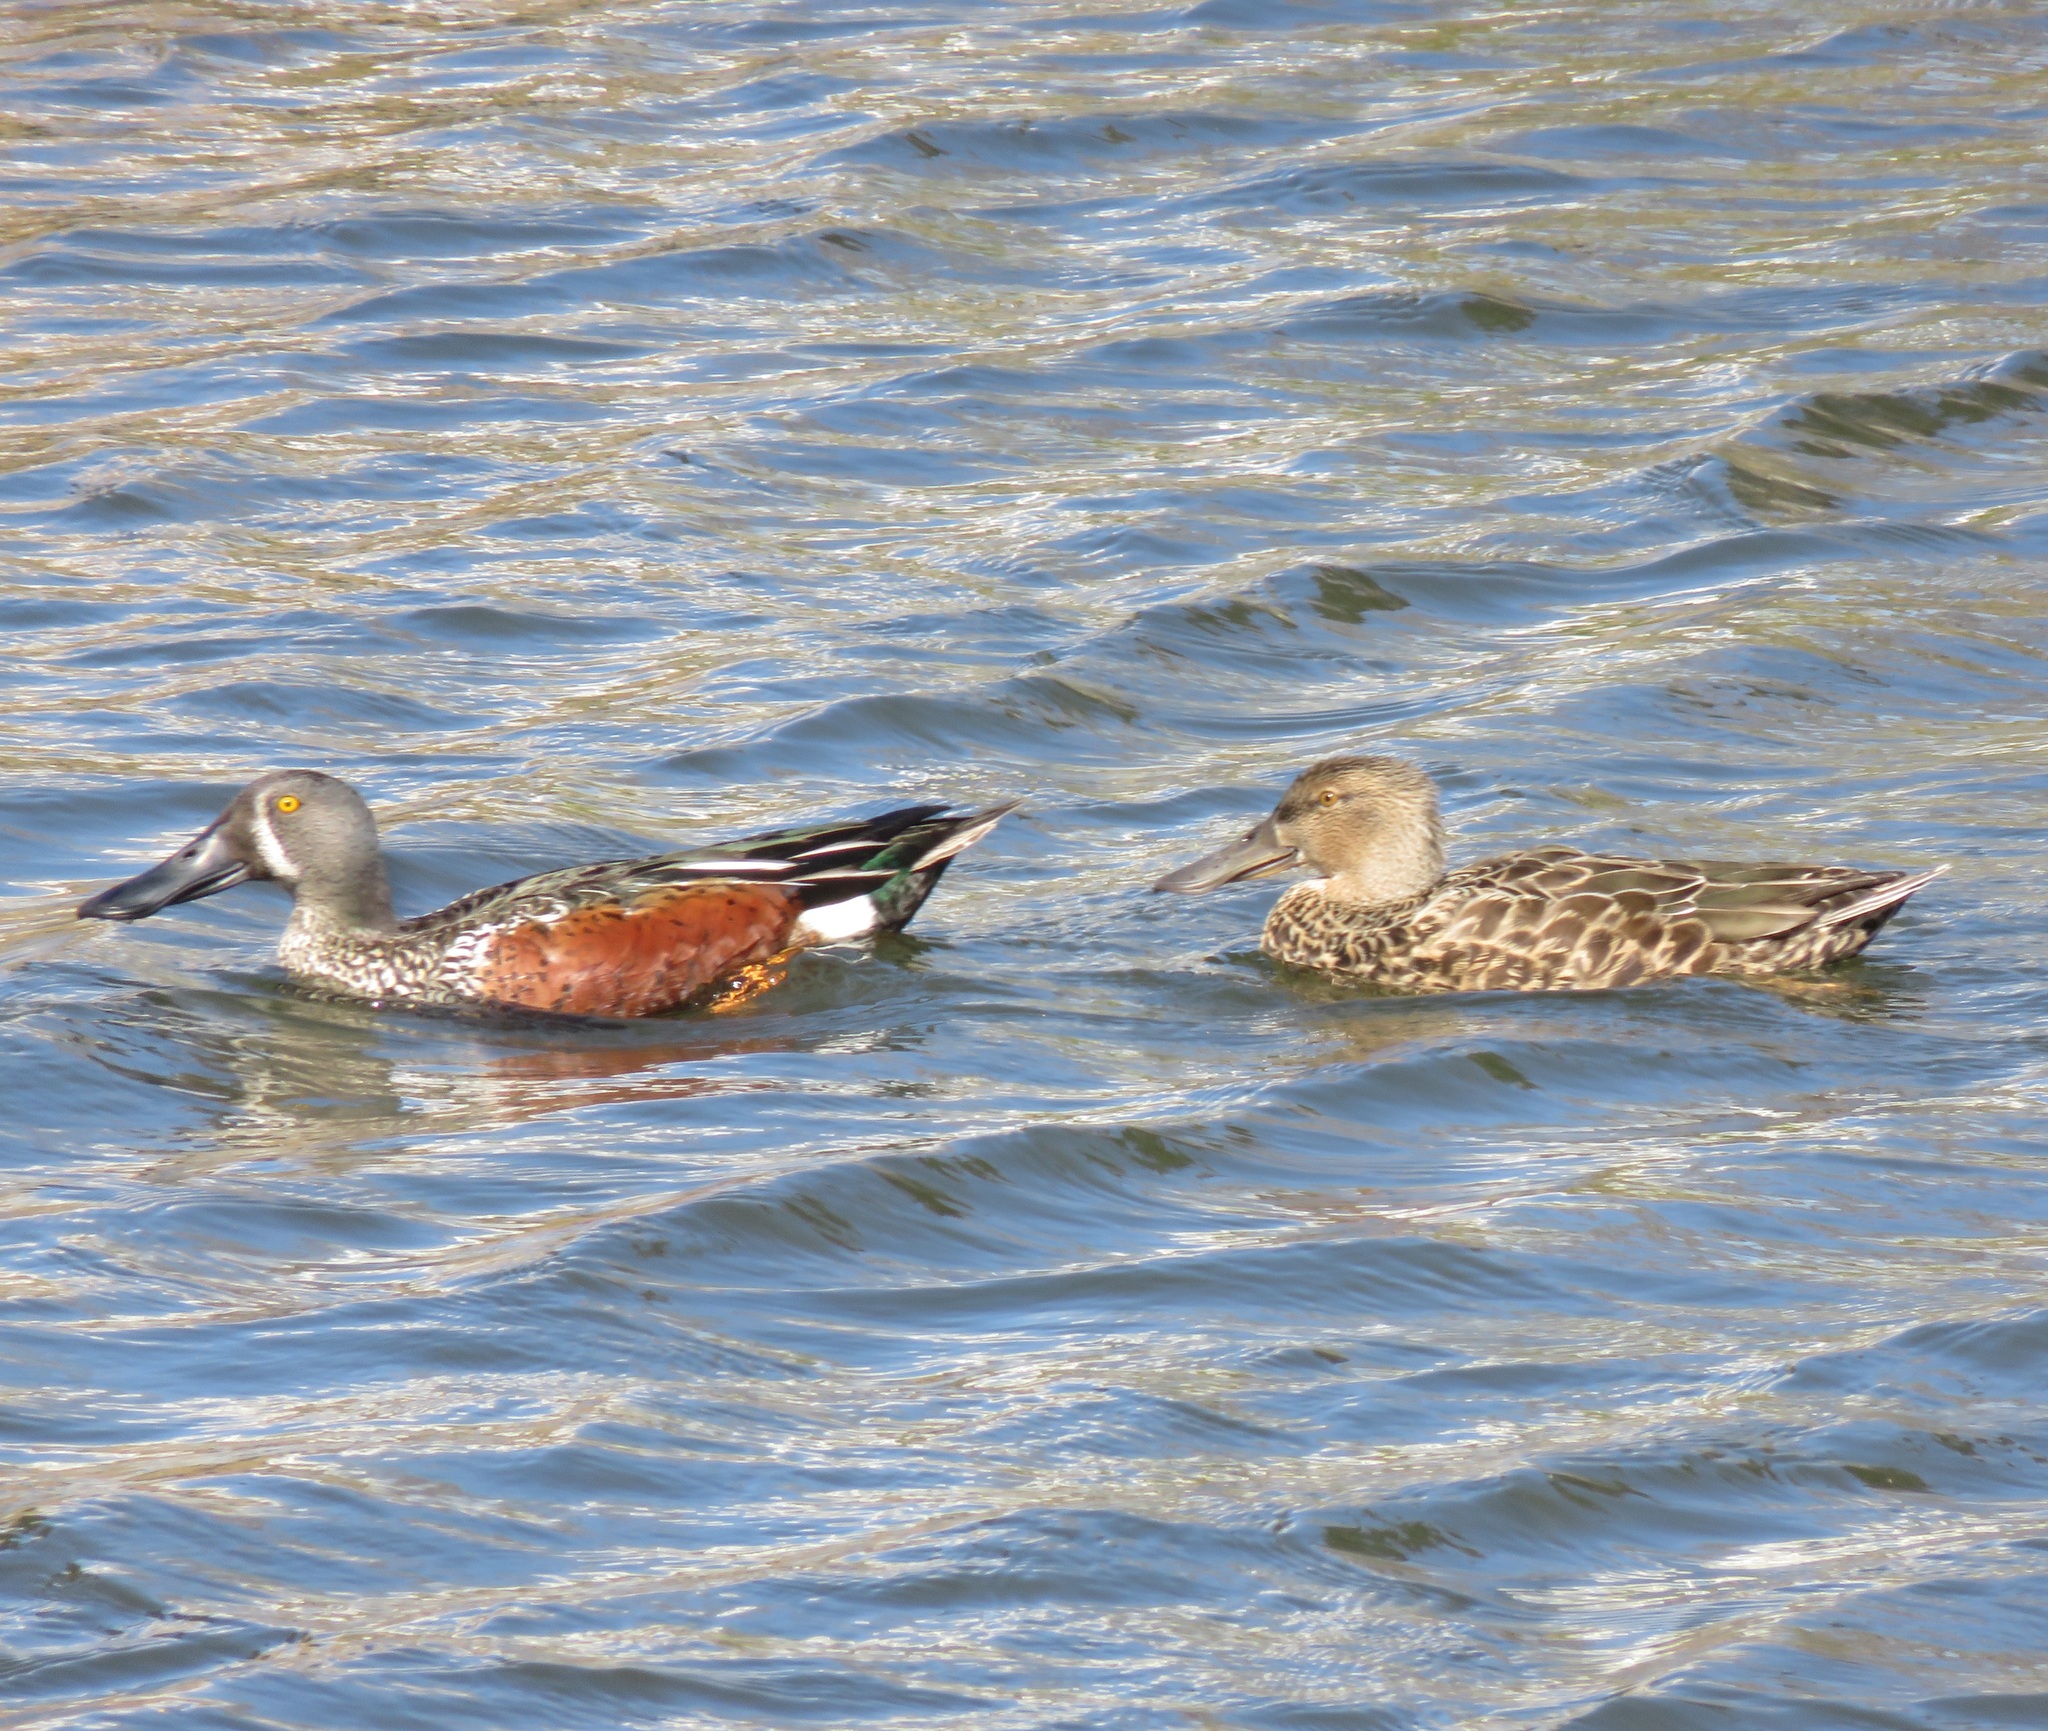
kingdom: Animalia
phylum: Chordata
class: Aves
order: Anseriformes
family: Anatidae
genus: Spatula
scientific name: Spatula rhynchotis
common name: Australian shoveler
